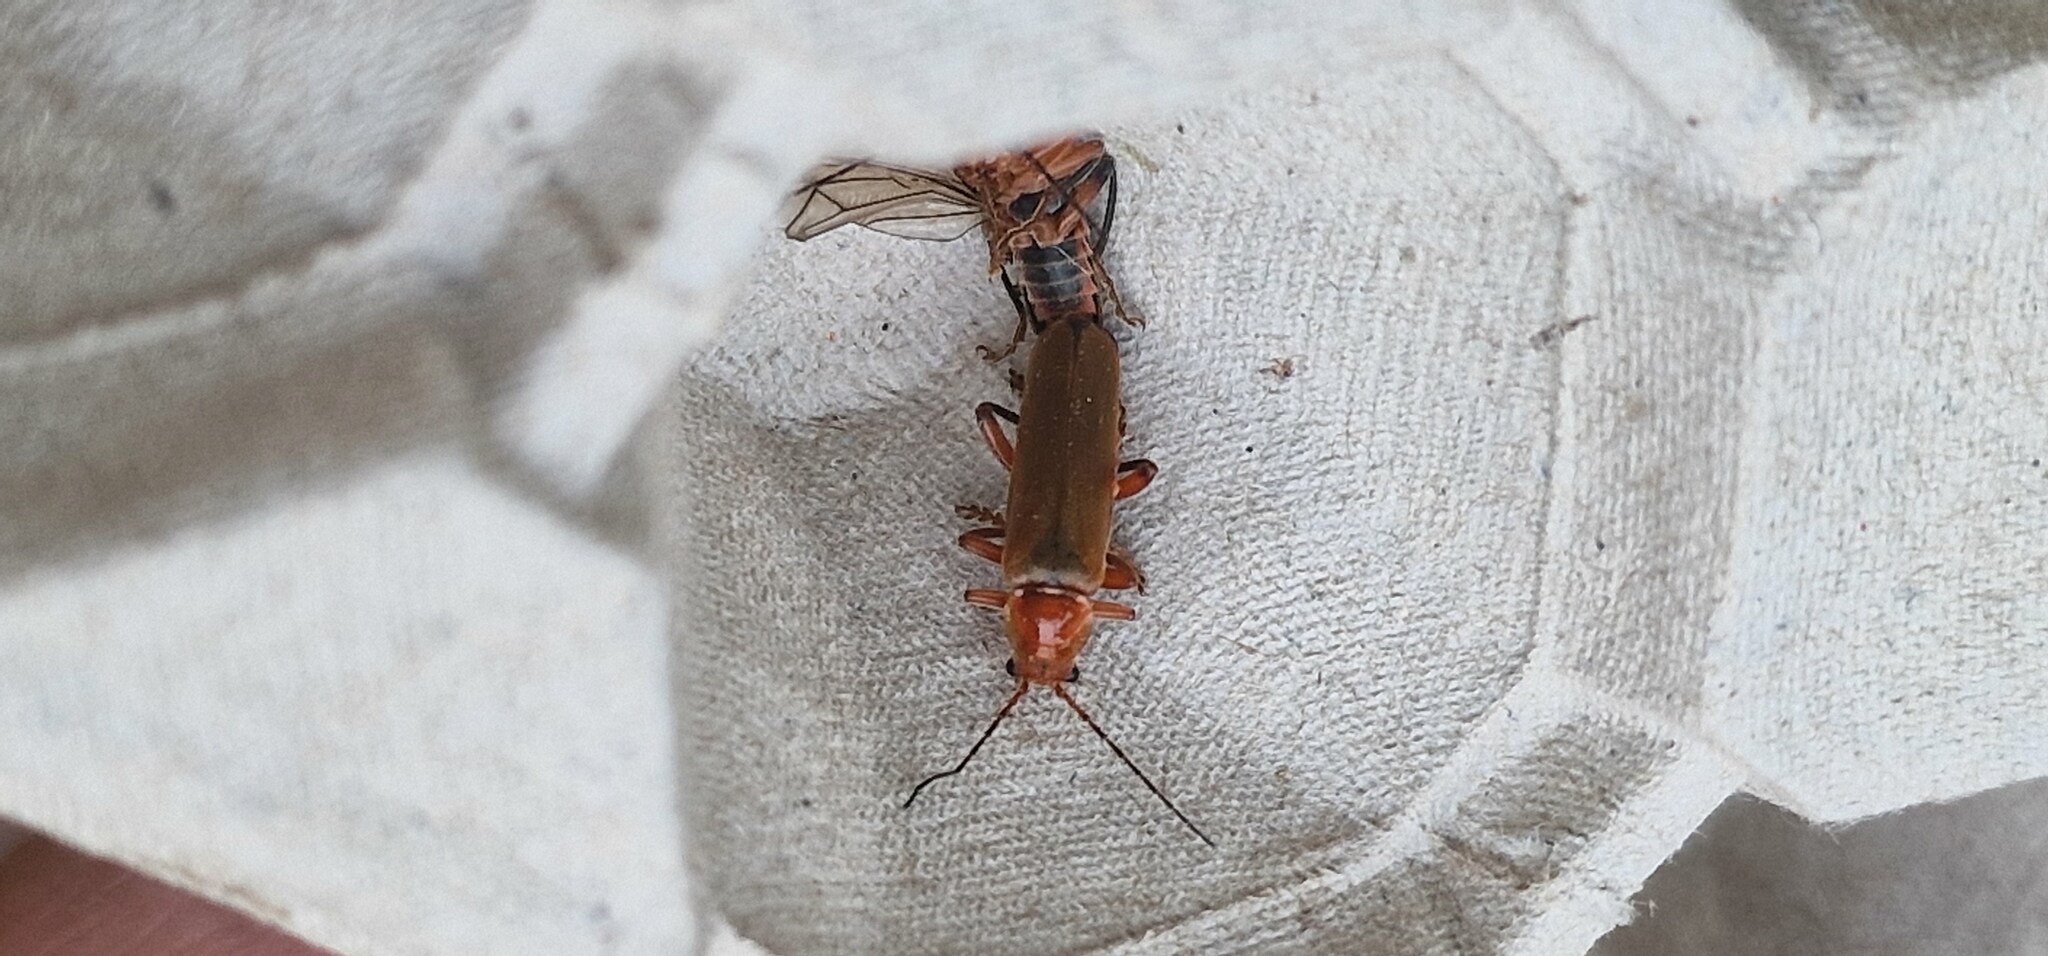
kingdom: Animalia
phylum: Arthropoda
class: Insecta
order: Coleoptera
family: Cantharidae
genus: Cantharis
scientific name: Cantharis livida
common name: Livid soldier beetle
